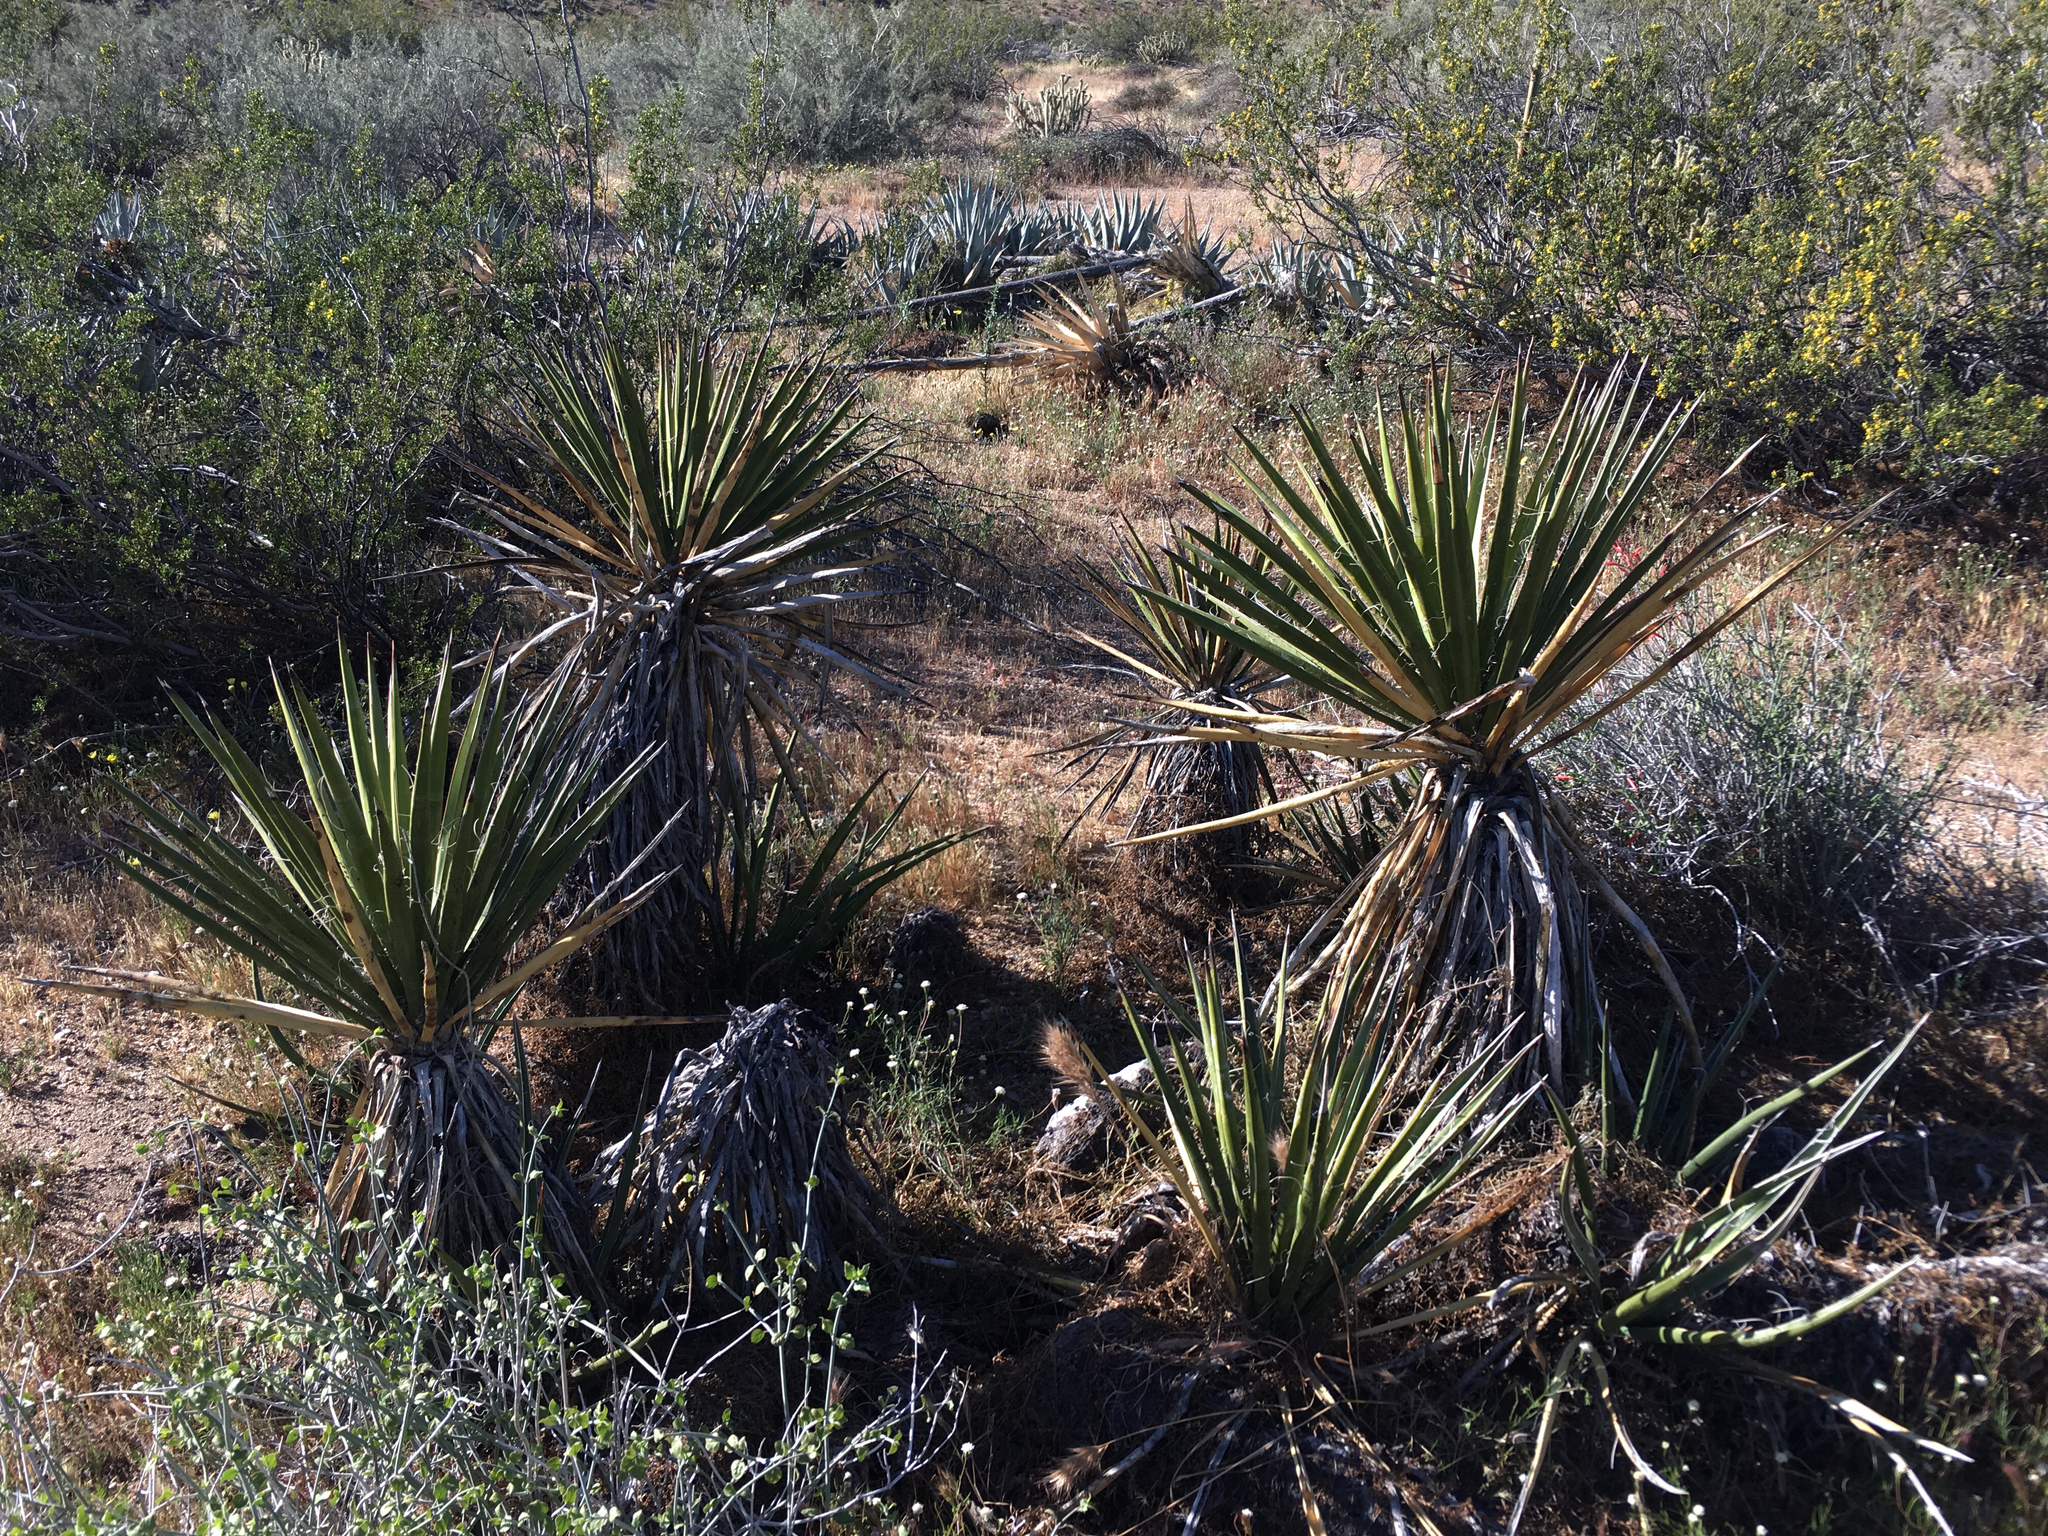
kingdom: Plantae
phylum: Tracheophyta
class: Liliopsida
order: Asparagales
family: Asparagaceae
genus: Yucca
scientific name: Yucca schidigera
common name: Mojave yucca
